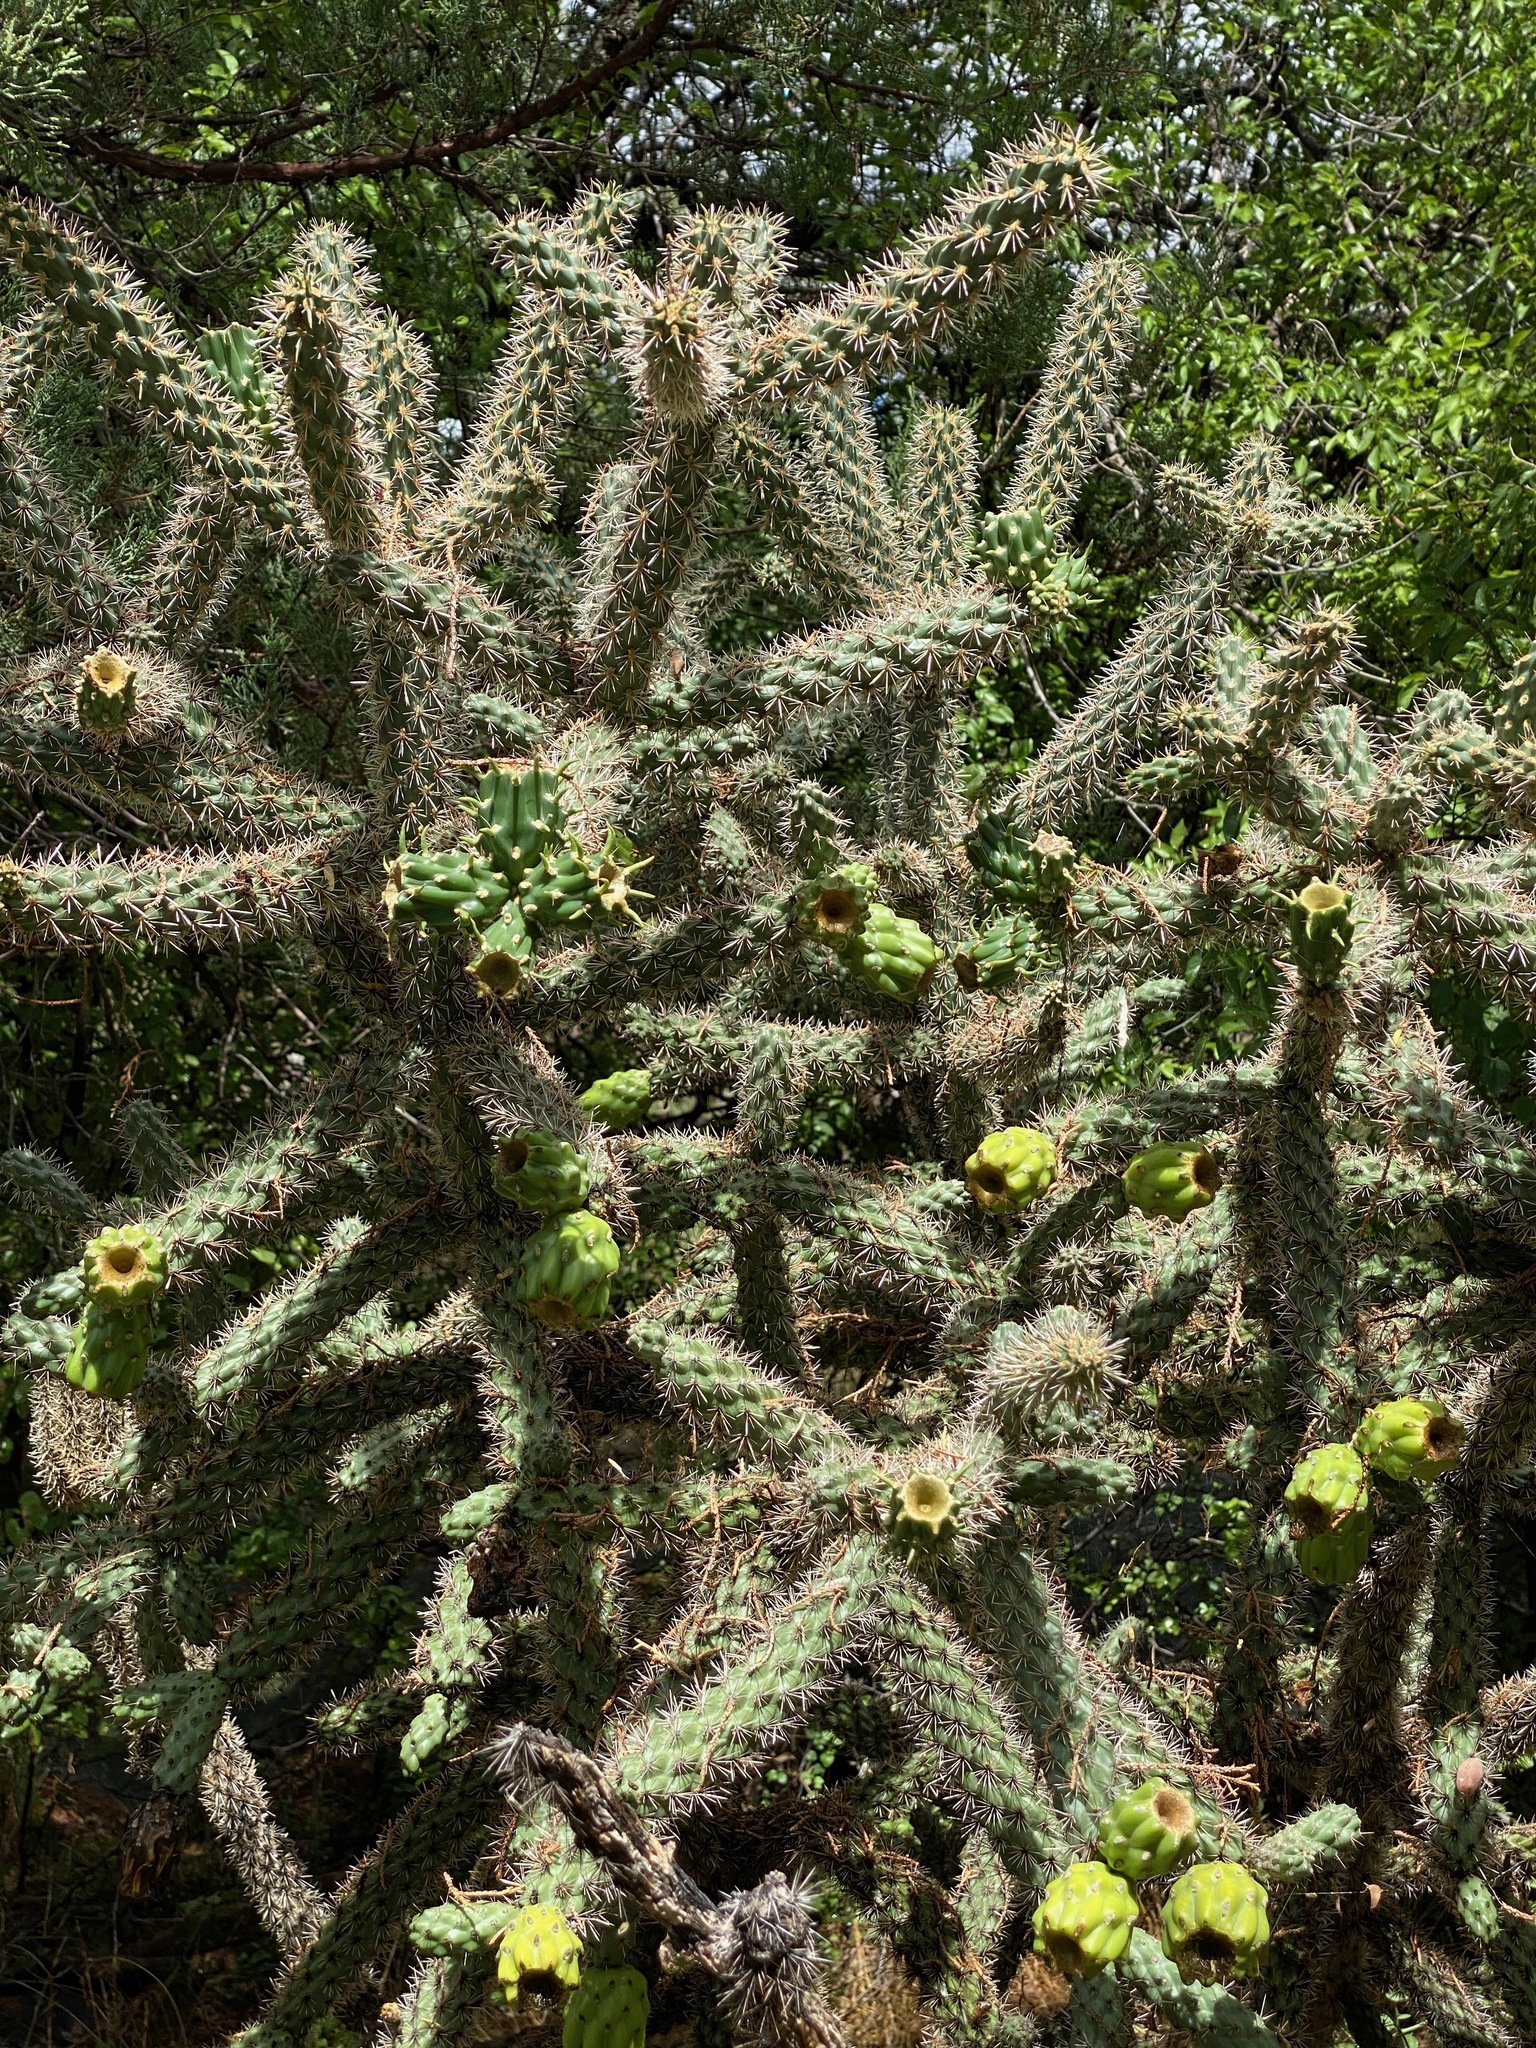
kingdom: Plantae
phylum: Tracheophyta
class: Magnoliopsida
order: Caryophyllales
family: Cactaceae
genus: Cylindropuntia
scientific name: Cylindropuntia imbricata
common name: Candelabrum cactus
